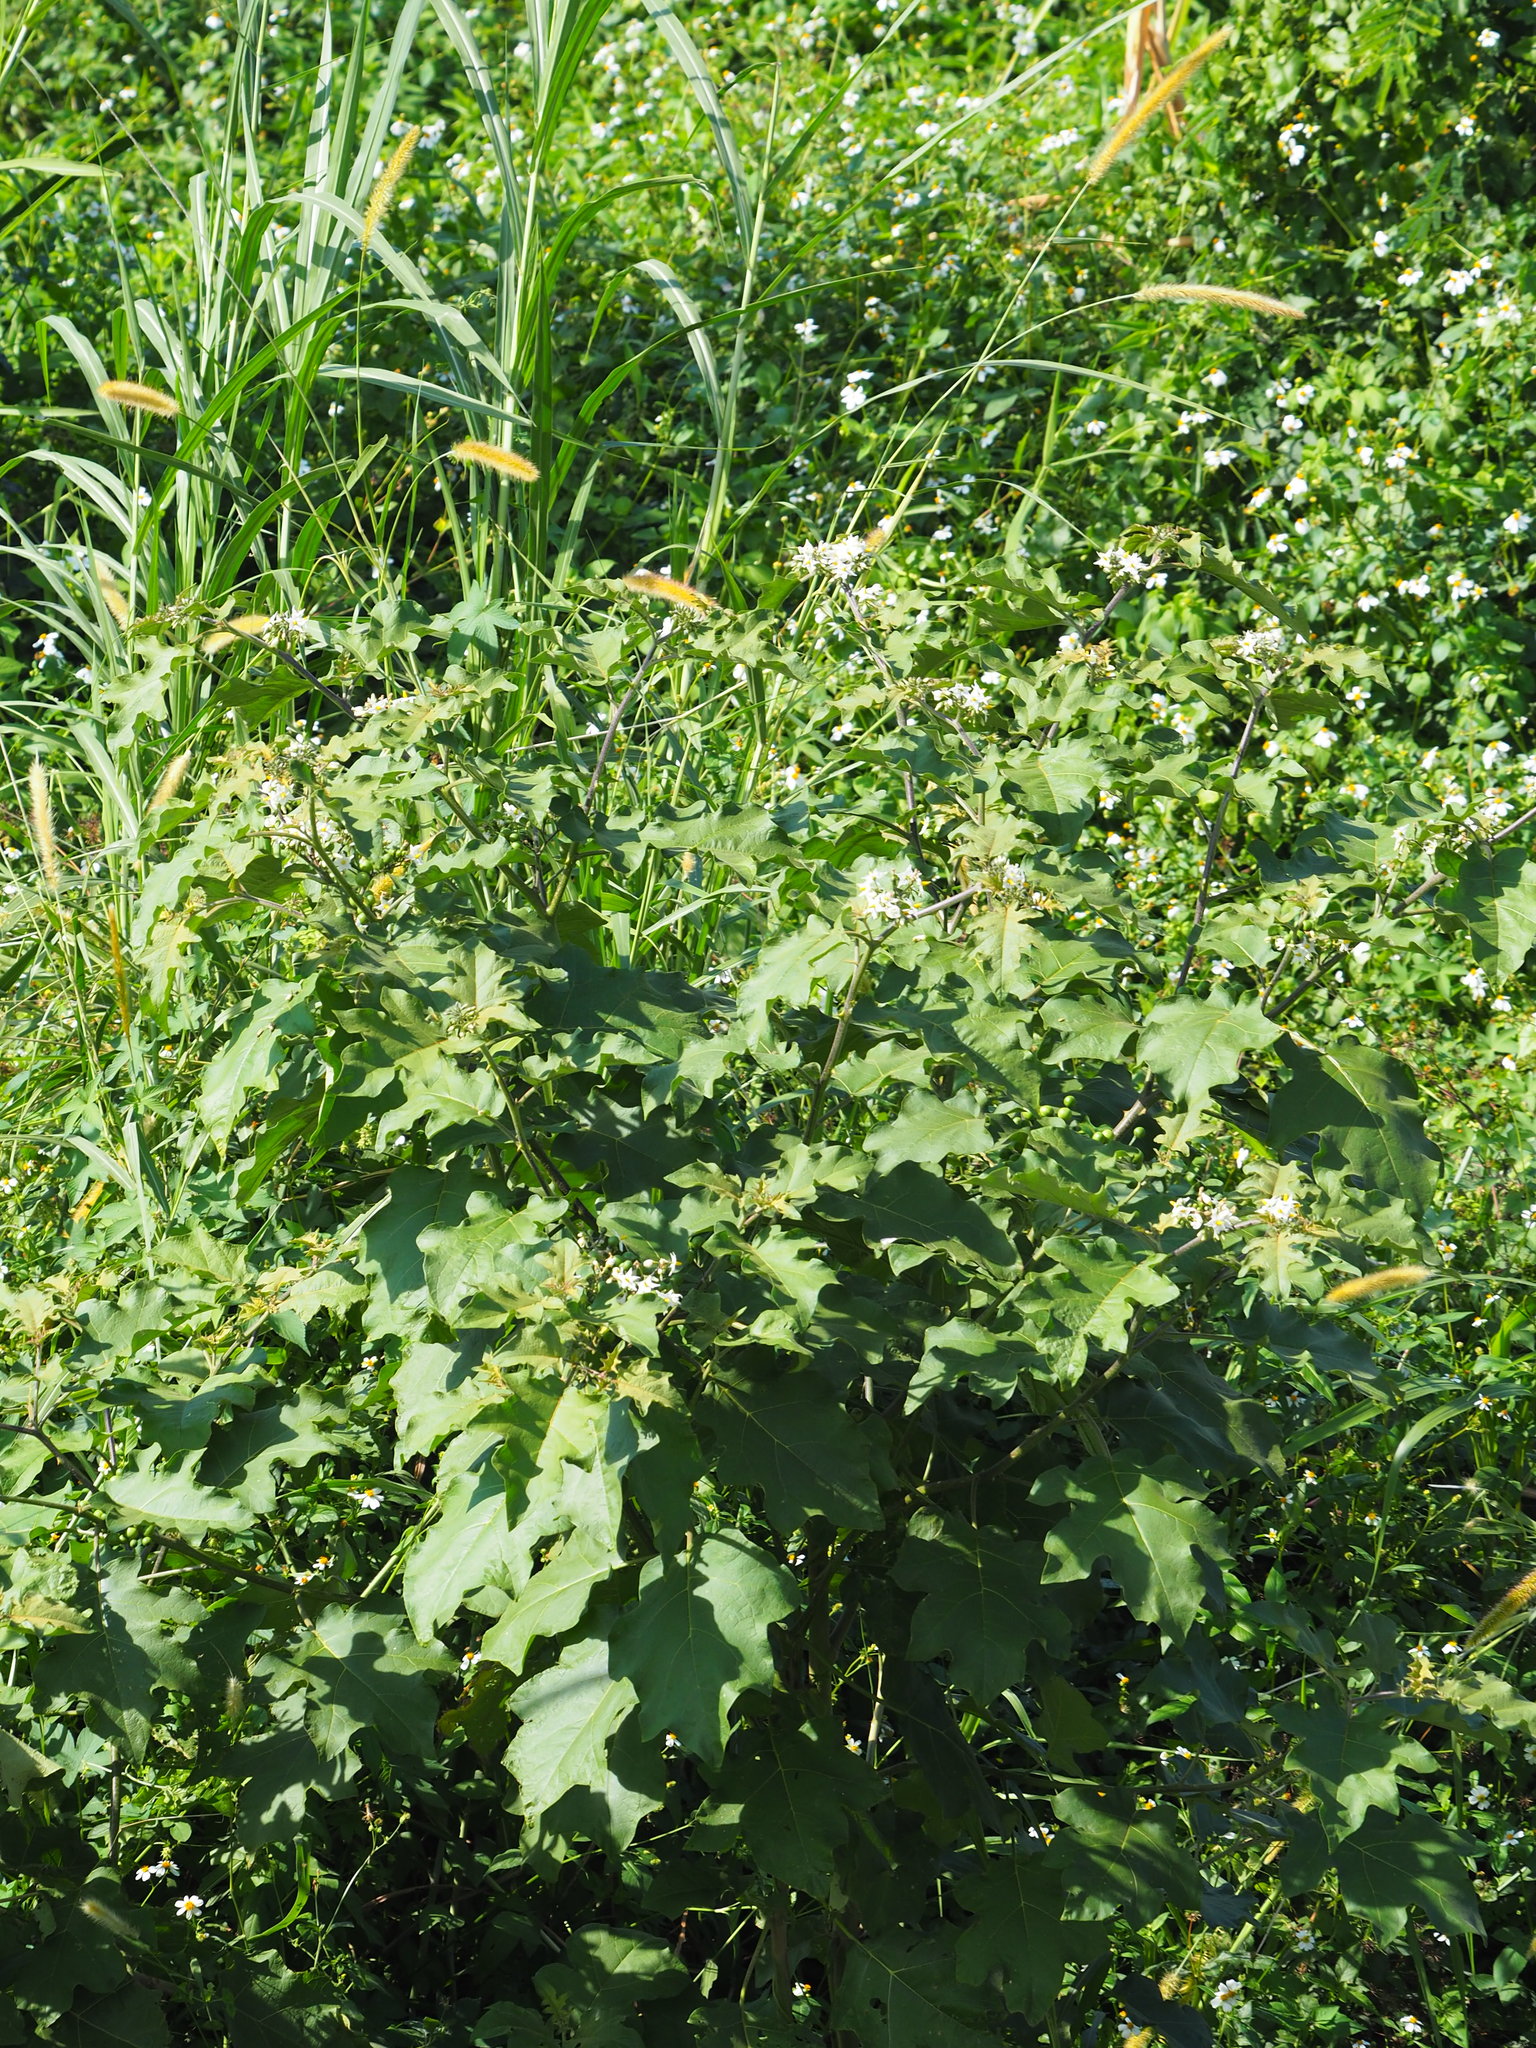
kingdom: Plantae
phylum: Tracheophyta
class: Magnoliopsida
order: Solanales
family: Solanaceae
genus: Solanum
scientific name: Solanum torvum
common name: Turkey berry
